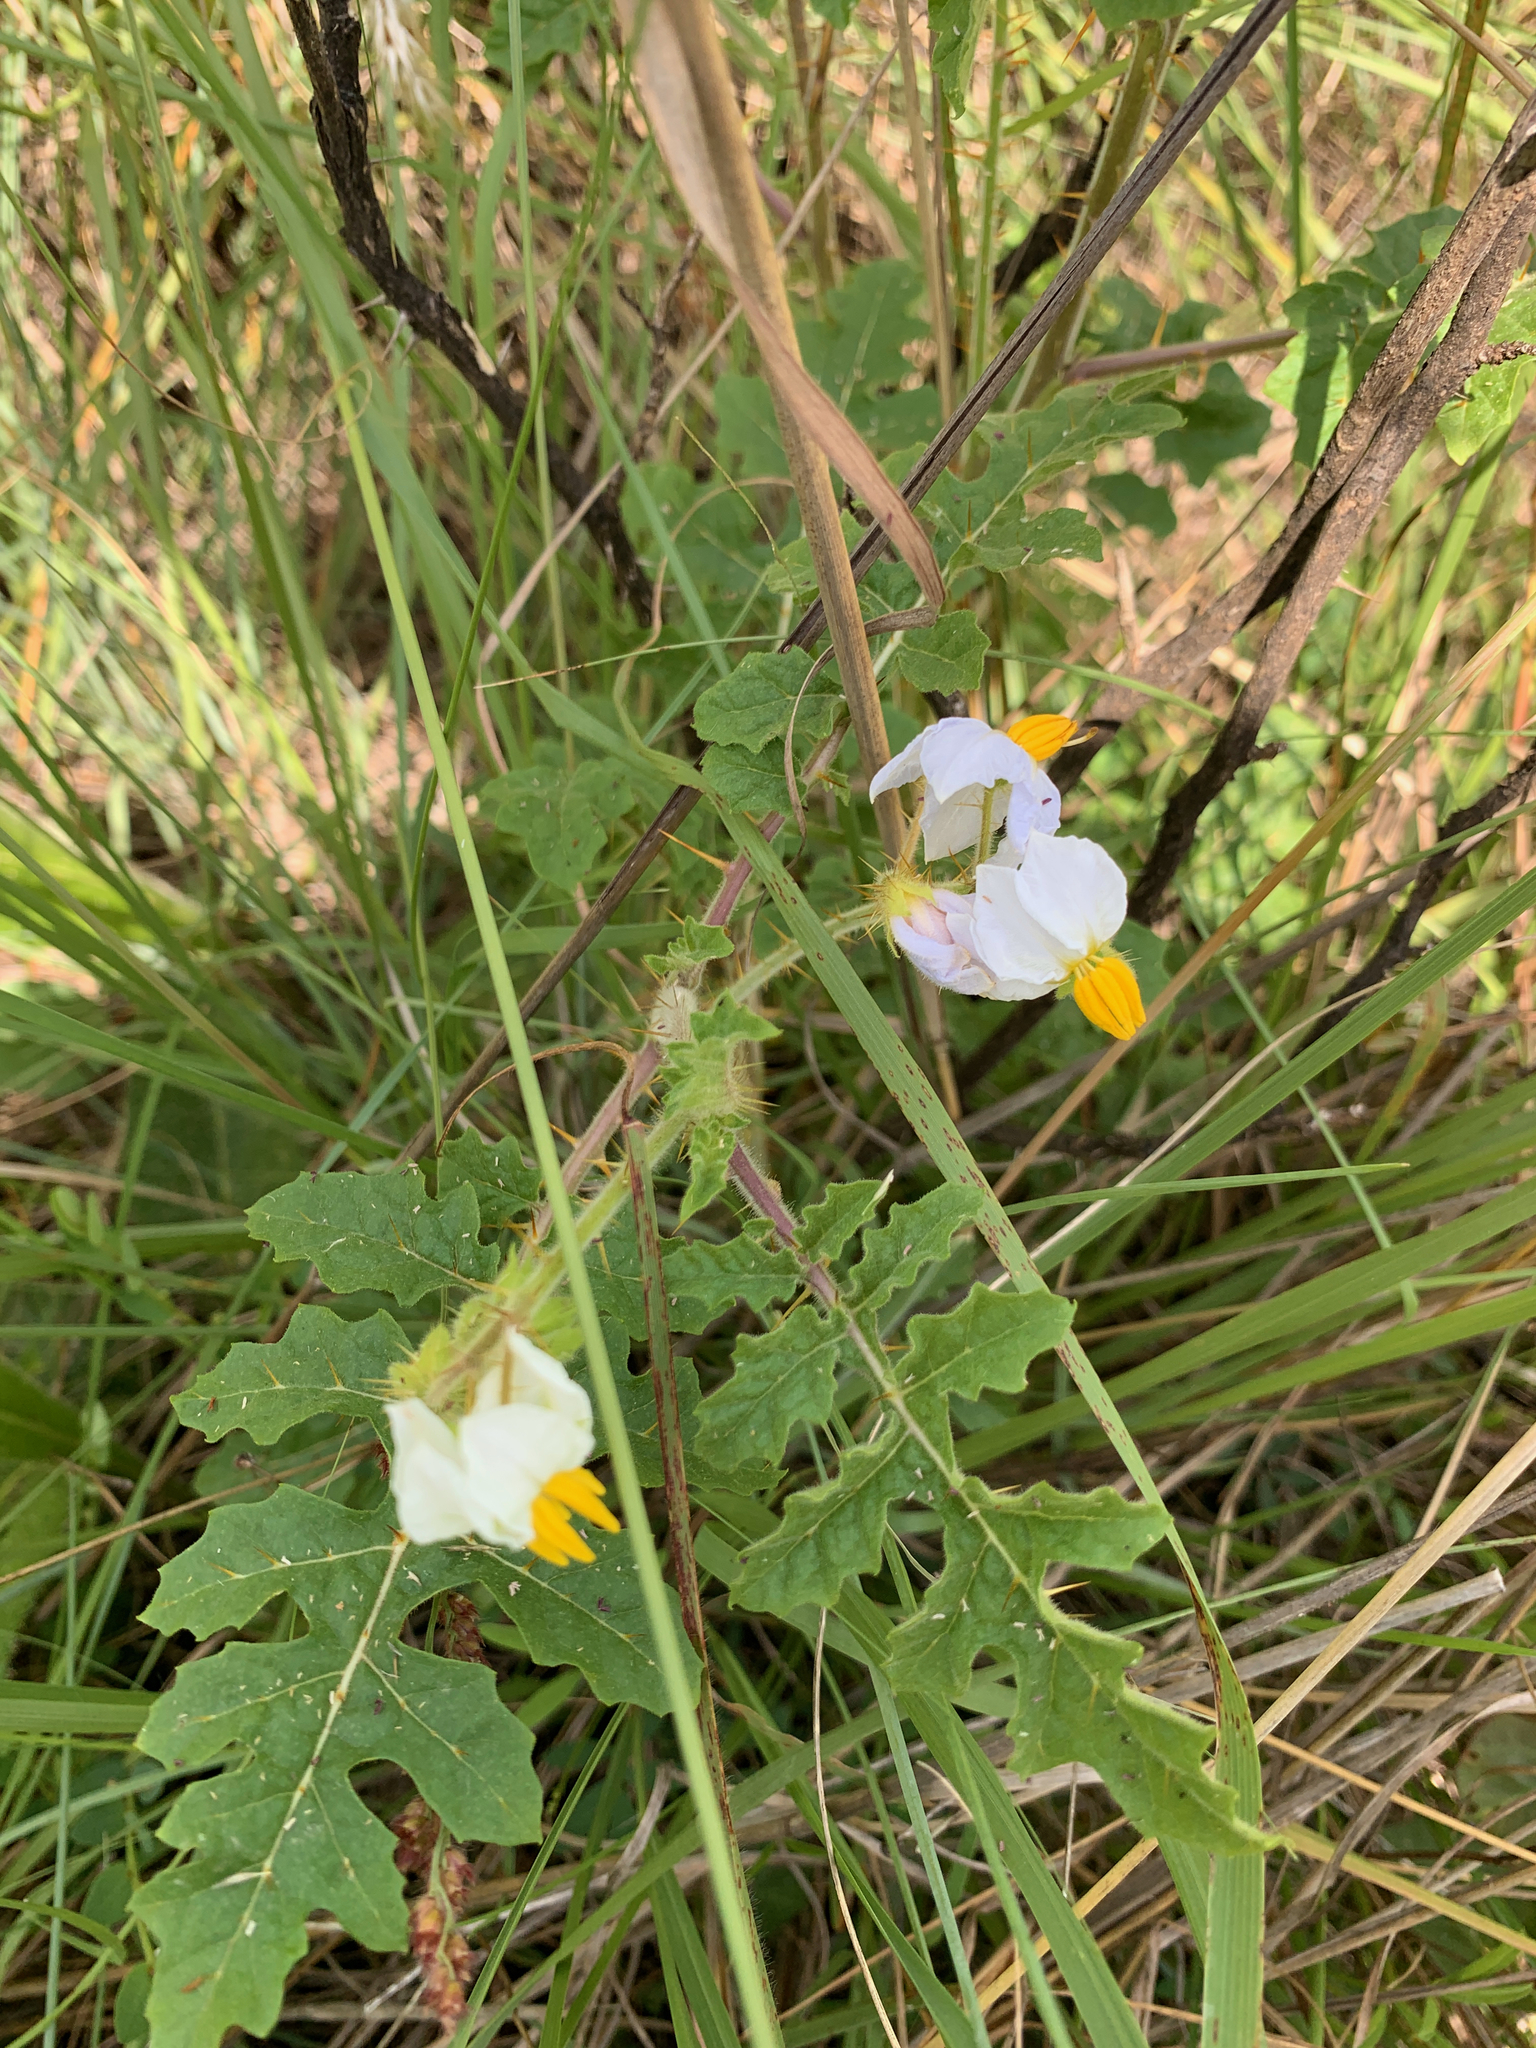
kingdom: Plantae
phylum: Tracheophyta
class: Magnoliopsida
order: Solanales
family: Solanaceae
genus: Solanum
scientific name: Solanum sisymbriifolium
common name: Red buffalo-bur
